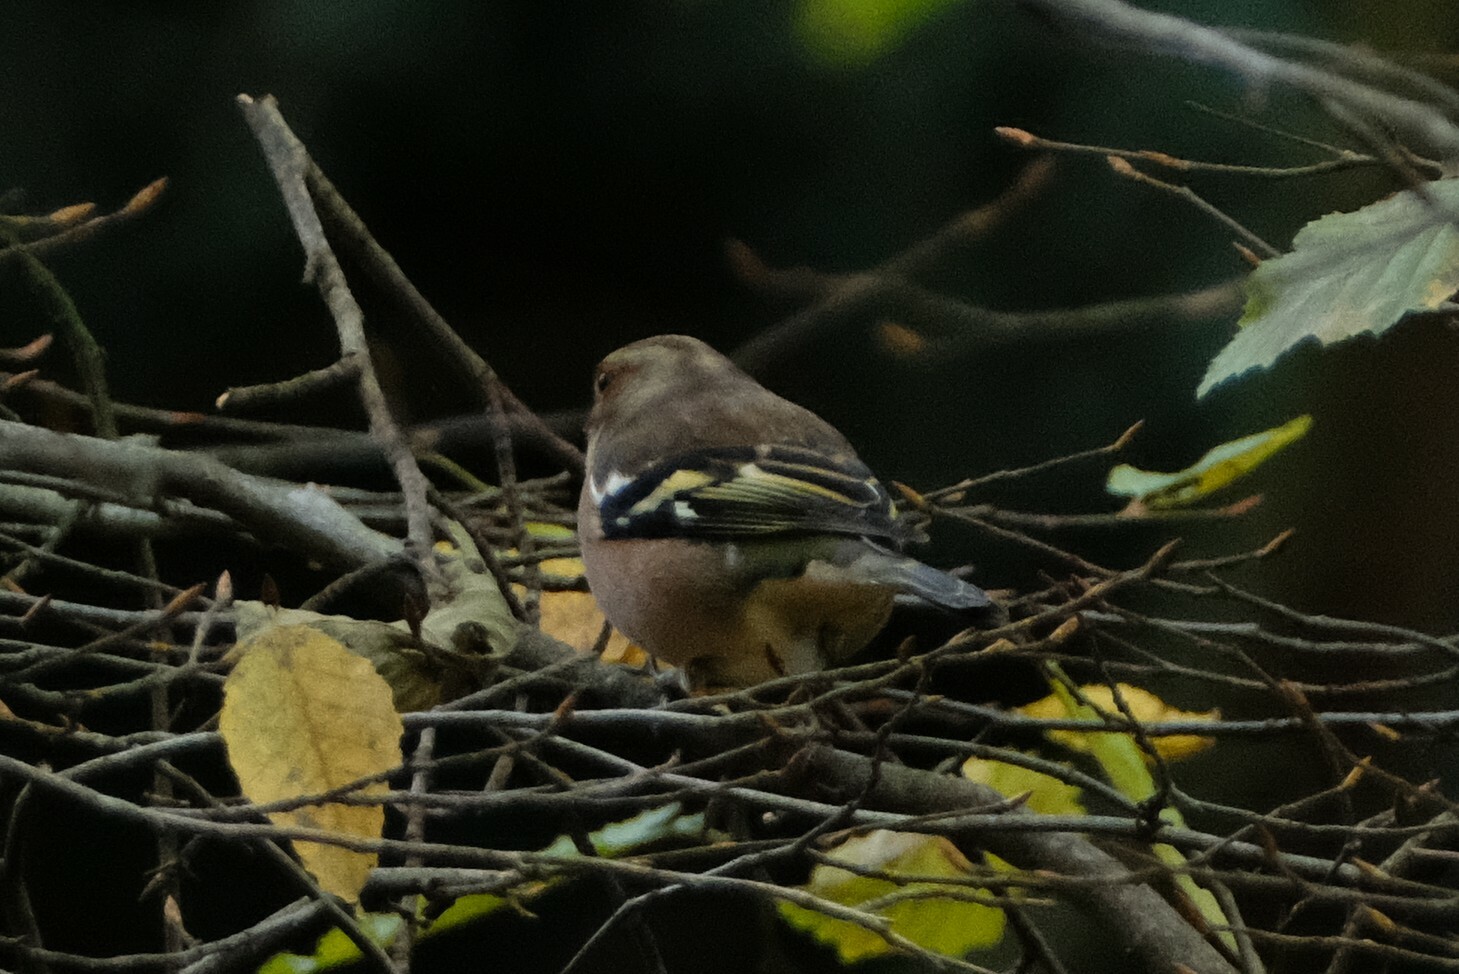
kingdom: Animalia
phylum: Chordata
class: Aves
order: Passeriformes
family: Fringillidae
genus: Fringilla
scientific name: Fringilla coelebs
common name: Common chaffinch
